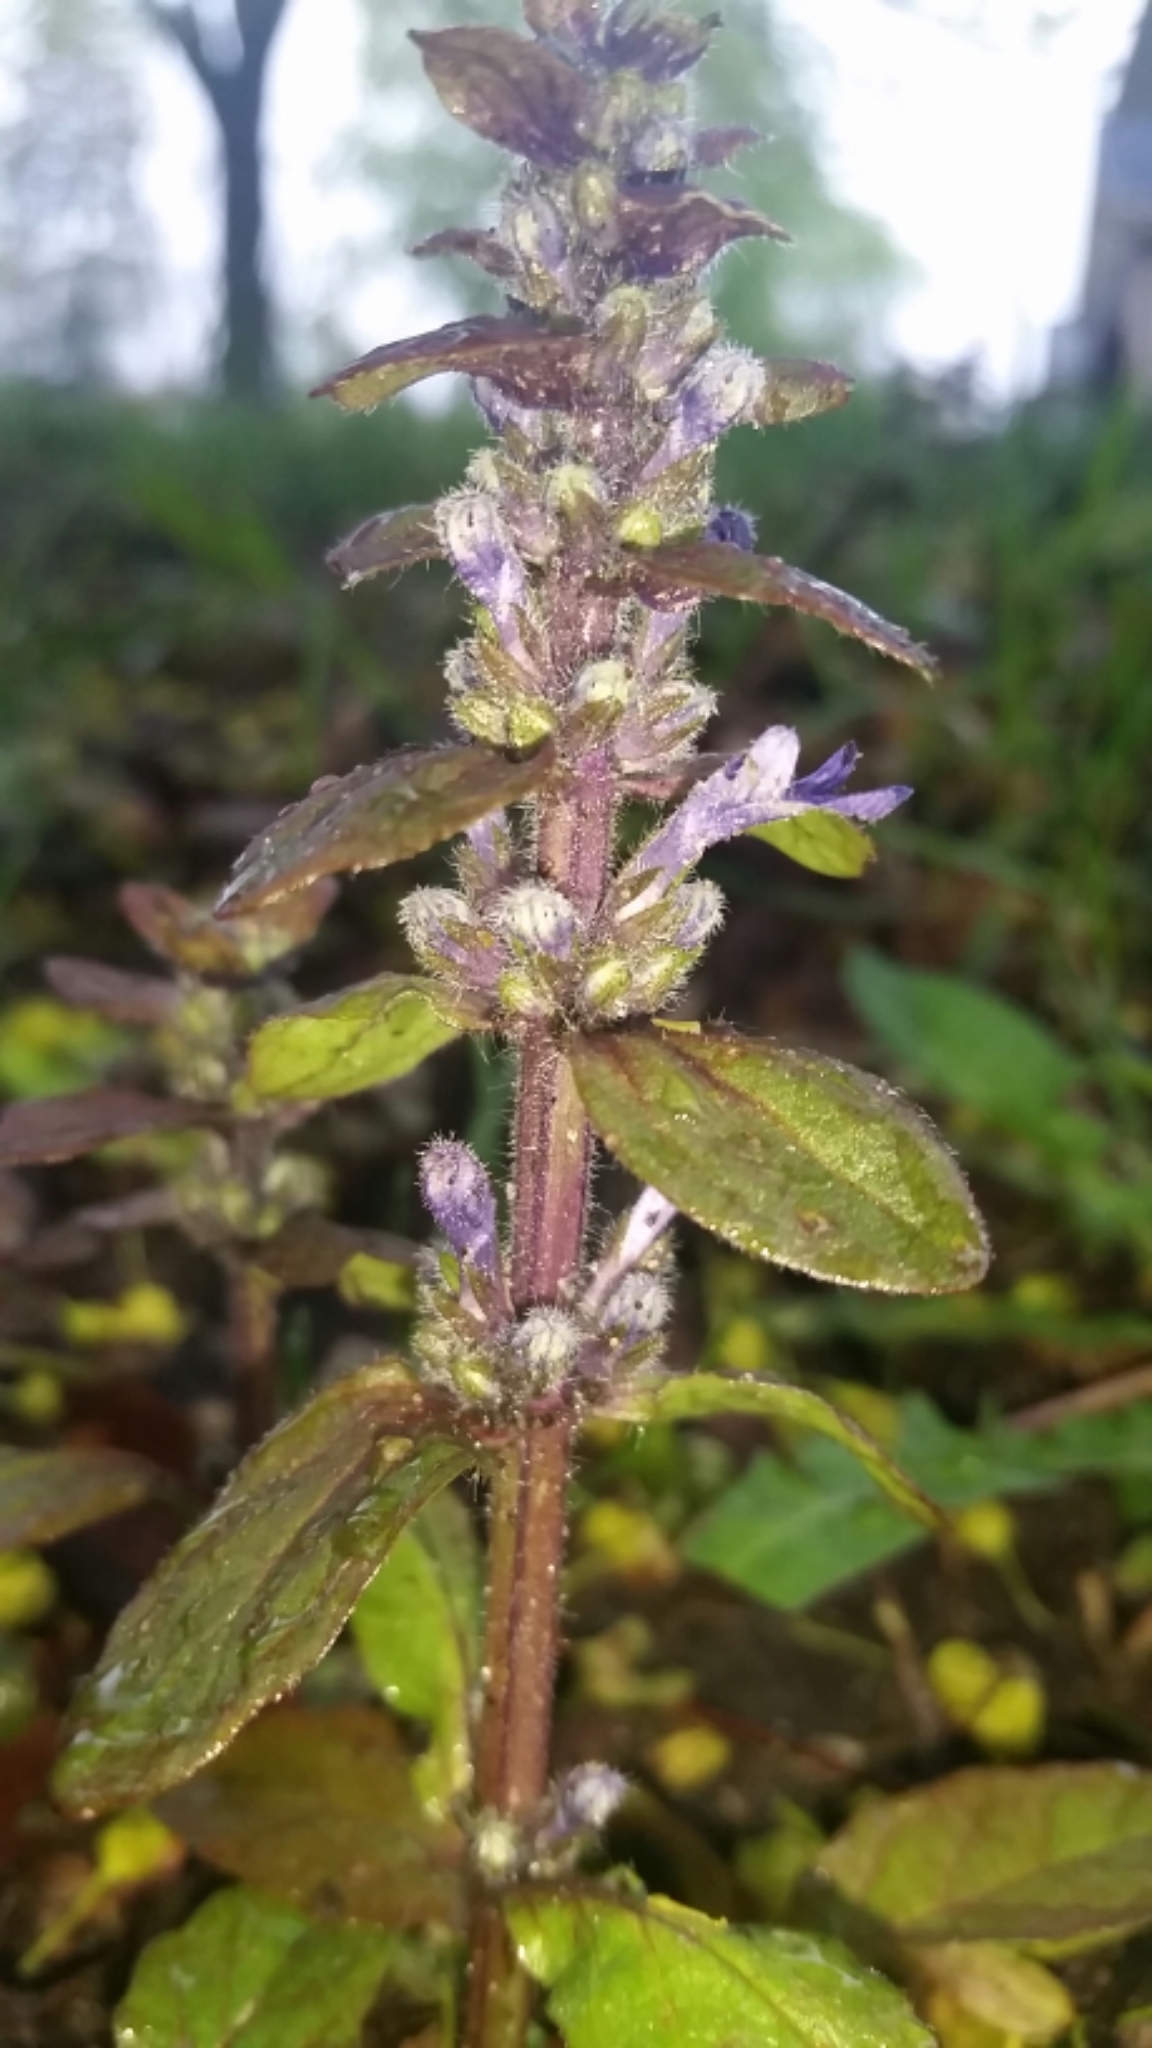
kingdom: Plantae
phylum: Tracheophyta
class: Magnoliopsida
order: Lamiales
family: Lamiaceae
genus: Ajuga
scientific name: Ajuga reptans
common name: Bugle
